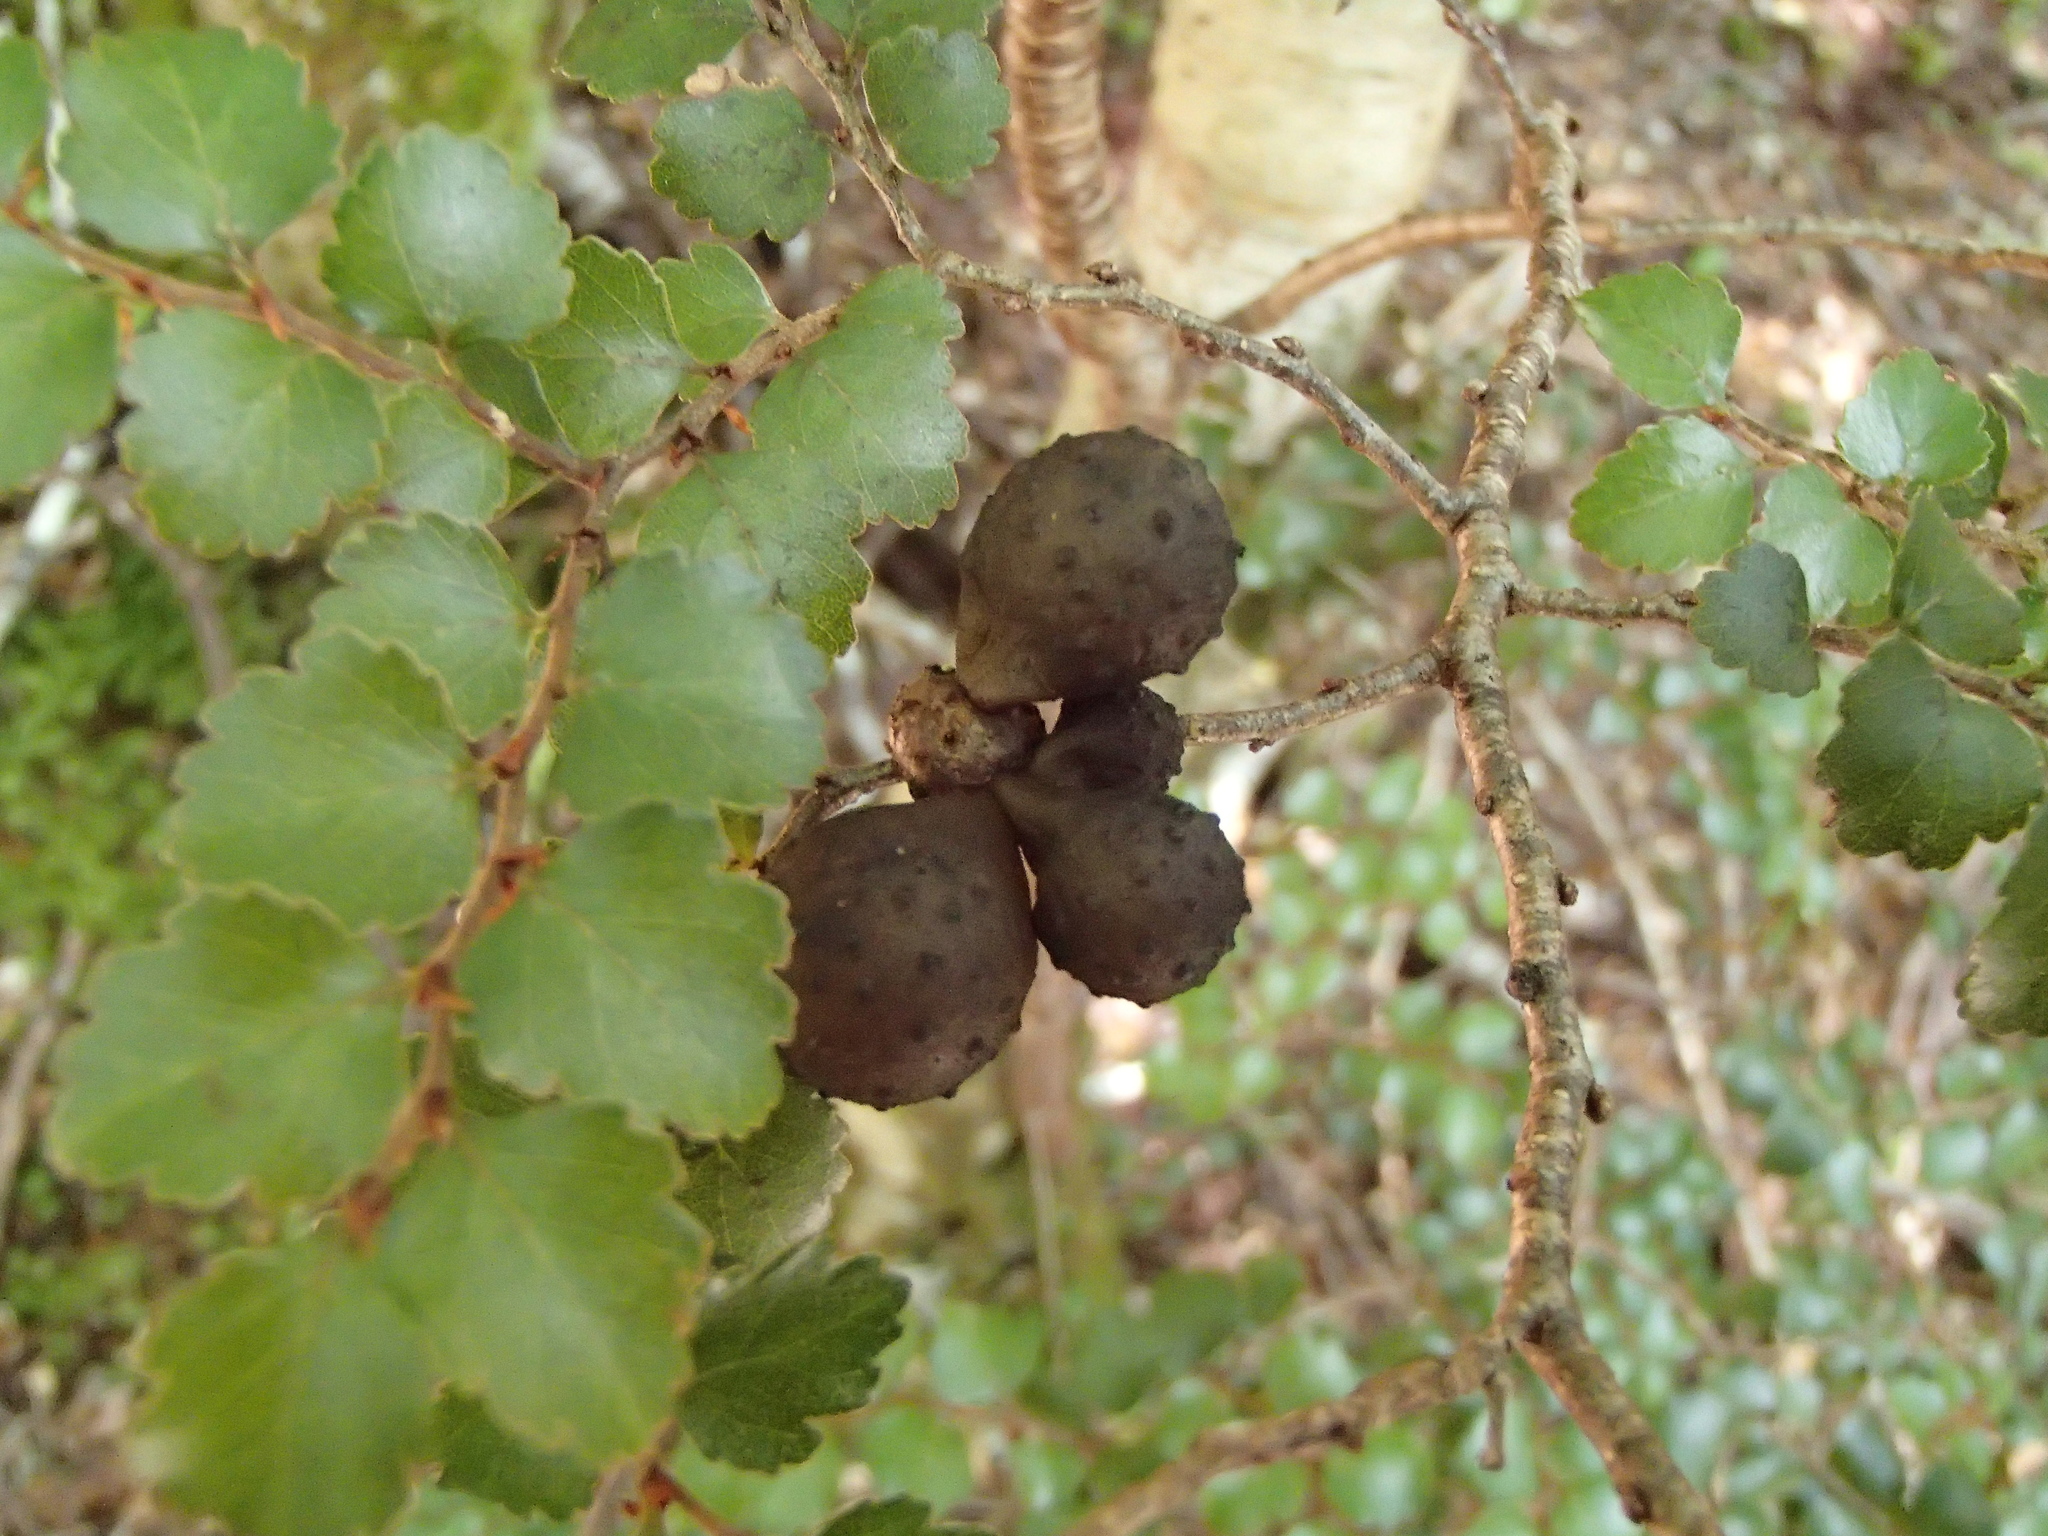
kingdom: Fungi
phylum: Ascomycota
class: Leotiomycetes
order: Cyttariales
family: Cyttariaceae
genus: Cyttaria
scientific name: Cyttaria nigra
